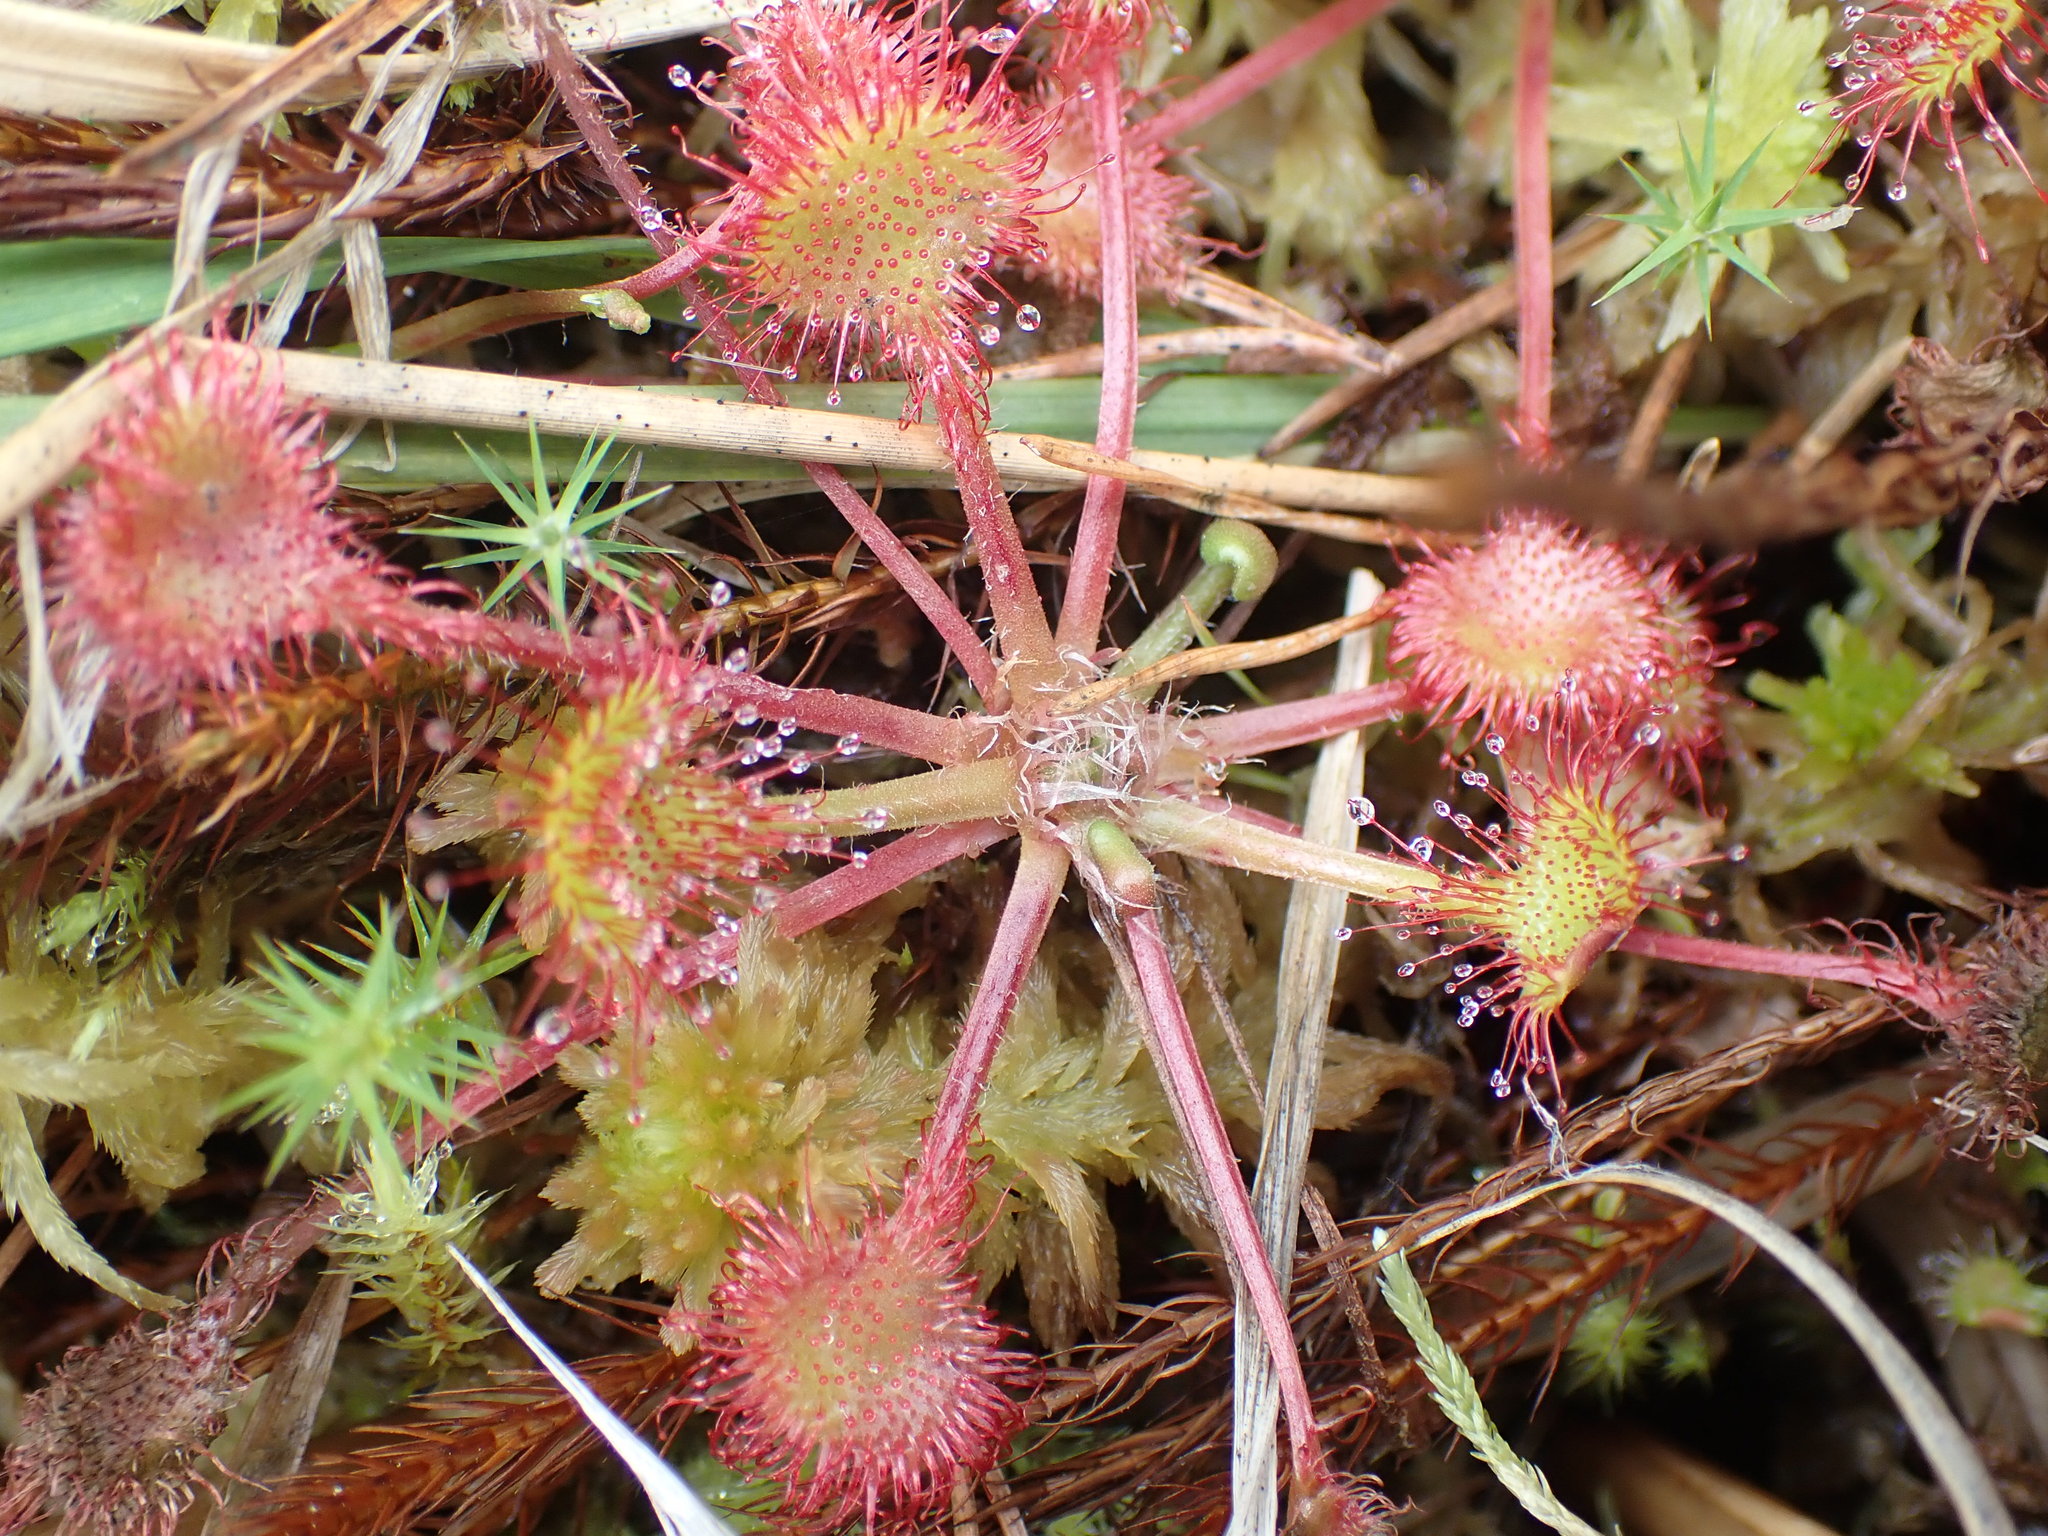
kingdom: Plantae
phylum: Tracheophyta
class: Magnoliopsida
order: Caryophyllales
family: Droseraceae
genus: Drosera
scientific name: Drosera rotundifolia
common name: Round-leaved sundew
